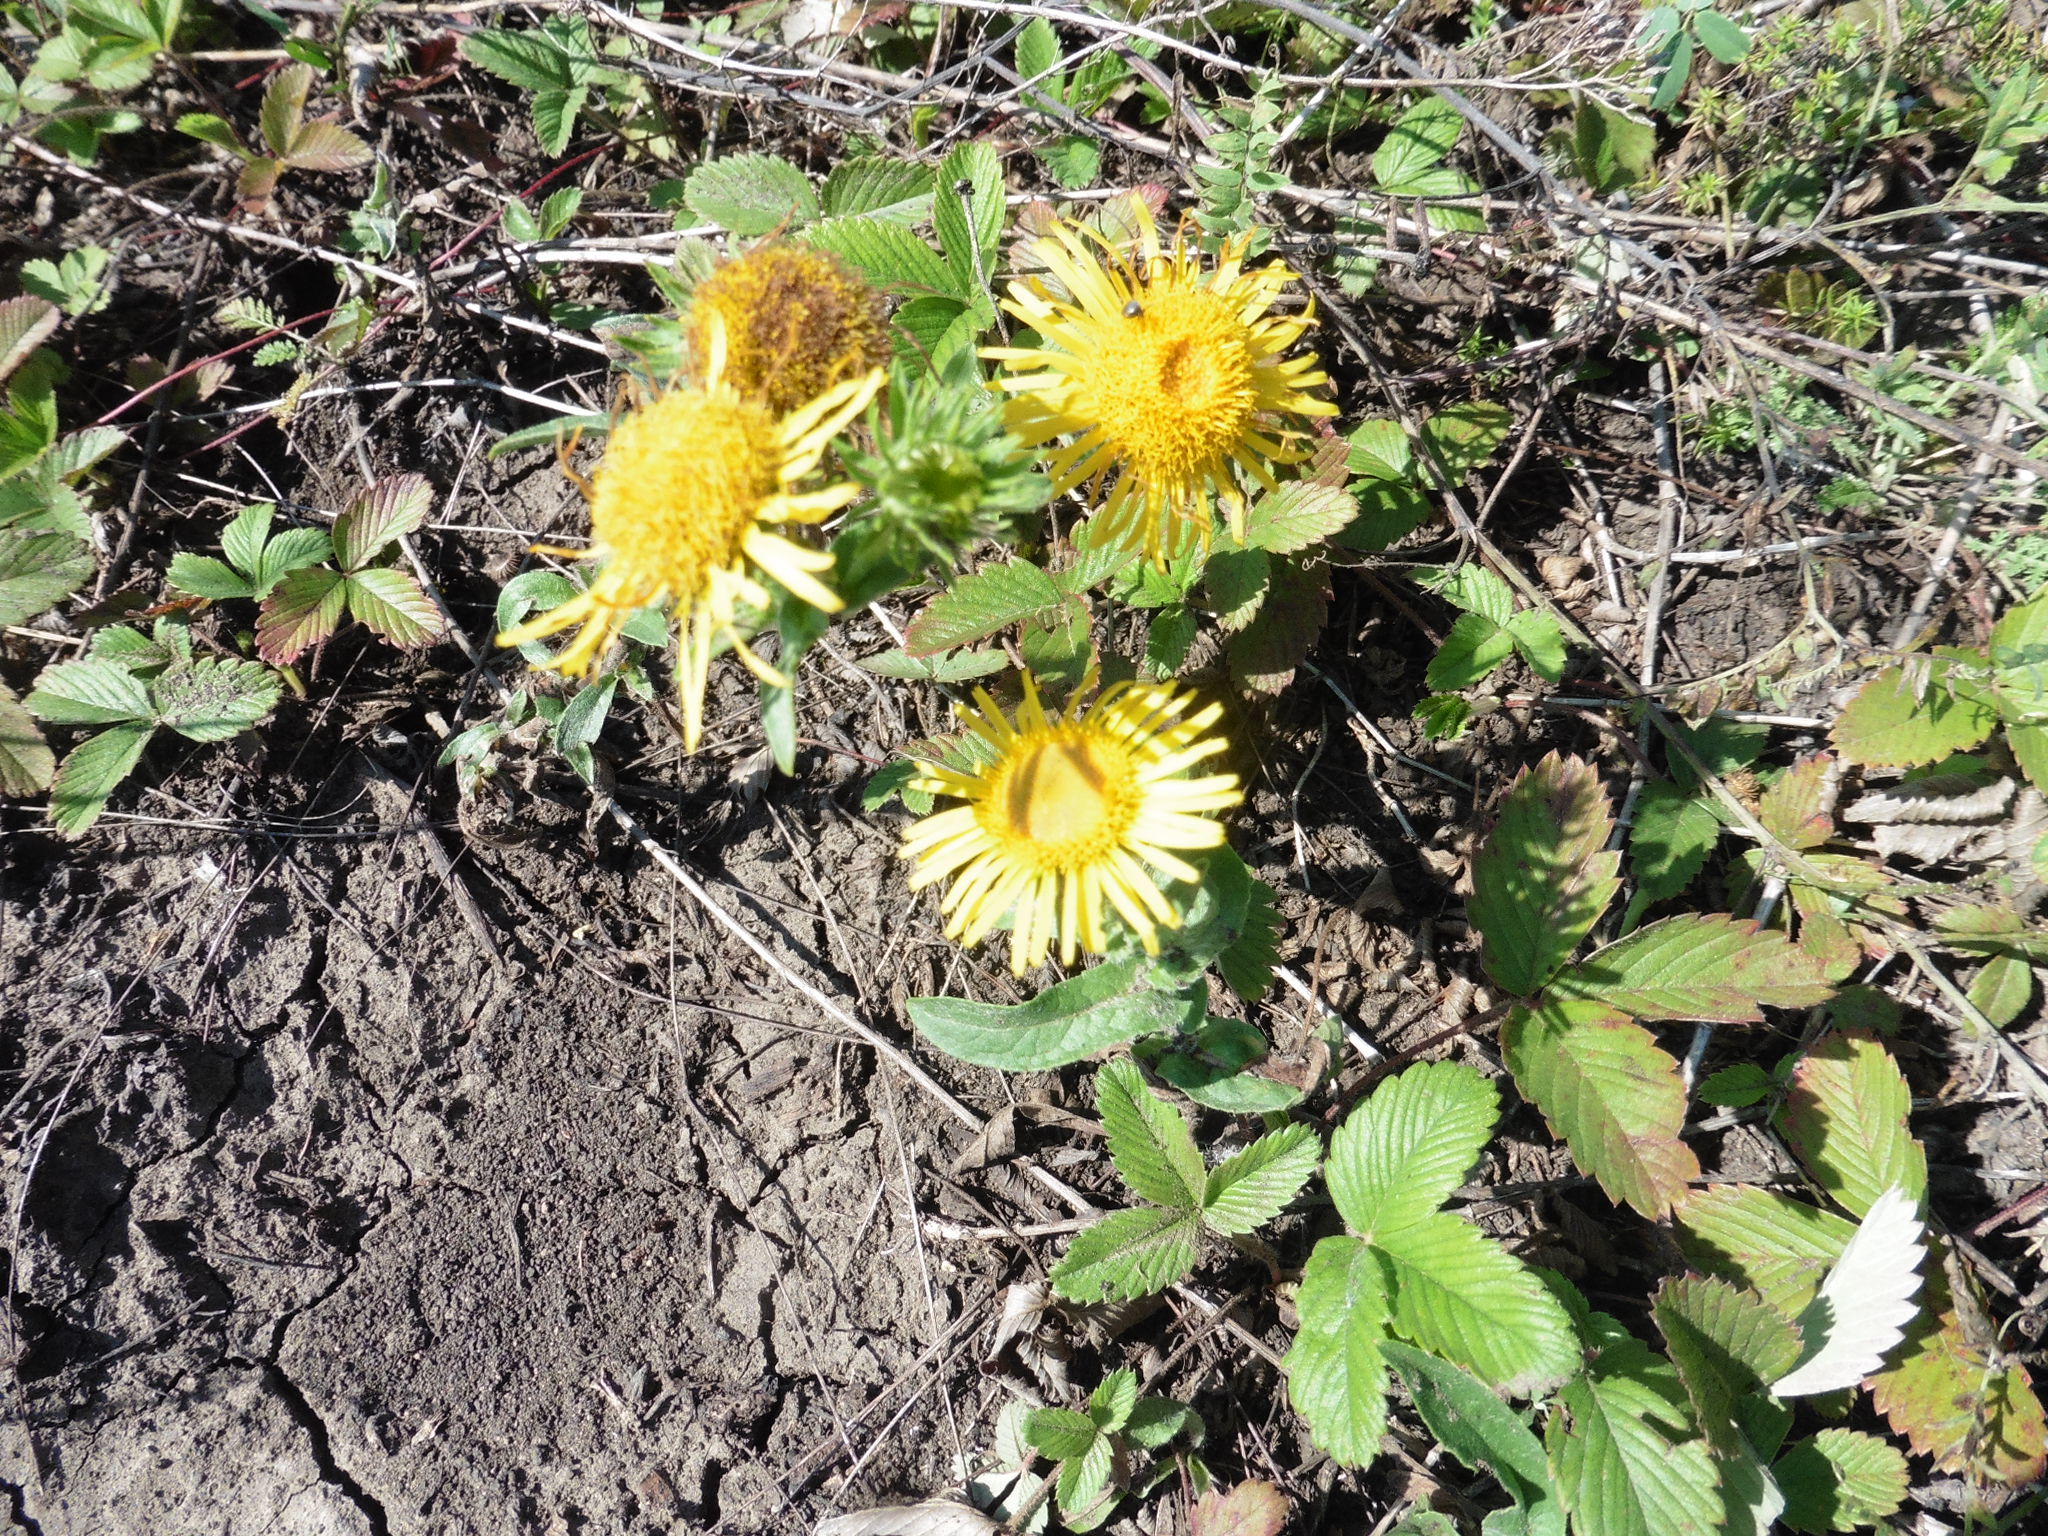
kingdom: Plantae
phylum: Tracheophyta
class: Magnoliopsida
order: Asterales
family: Asteraceae
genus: Pentanema
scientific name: Pentanema britannicum
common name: British elecampane
